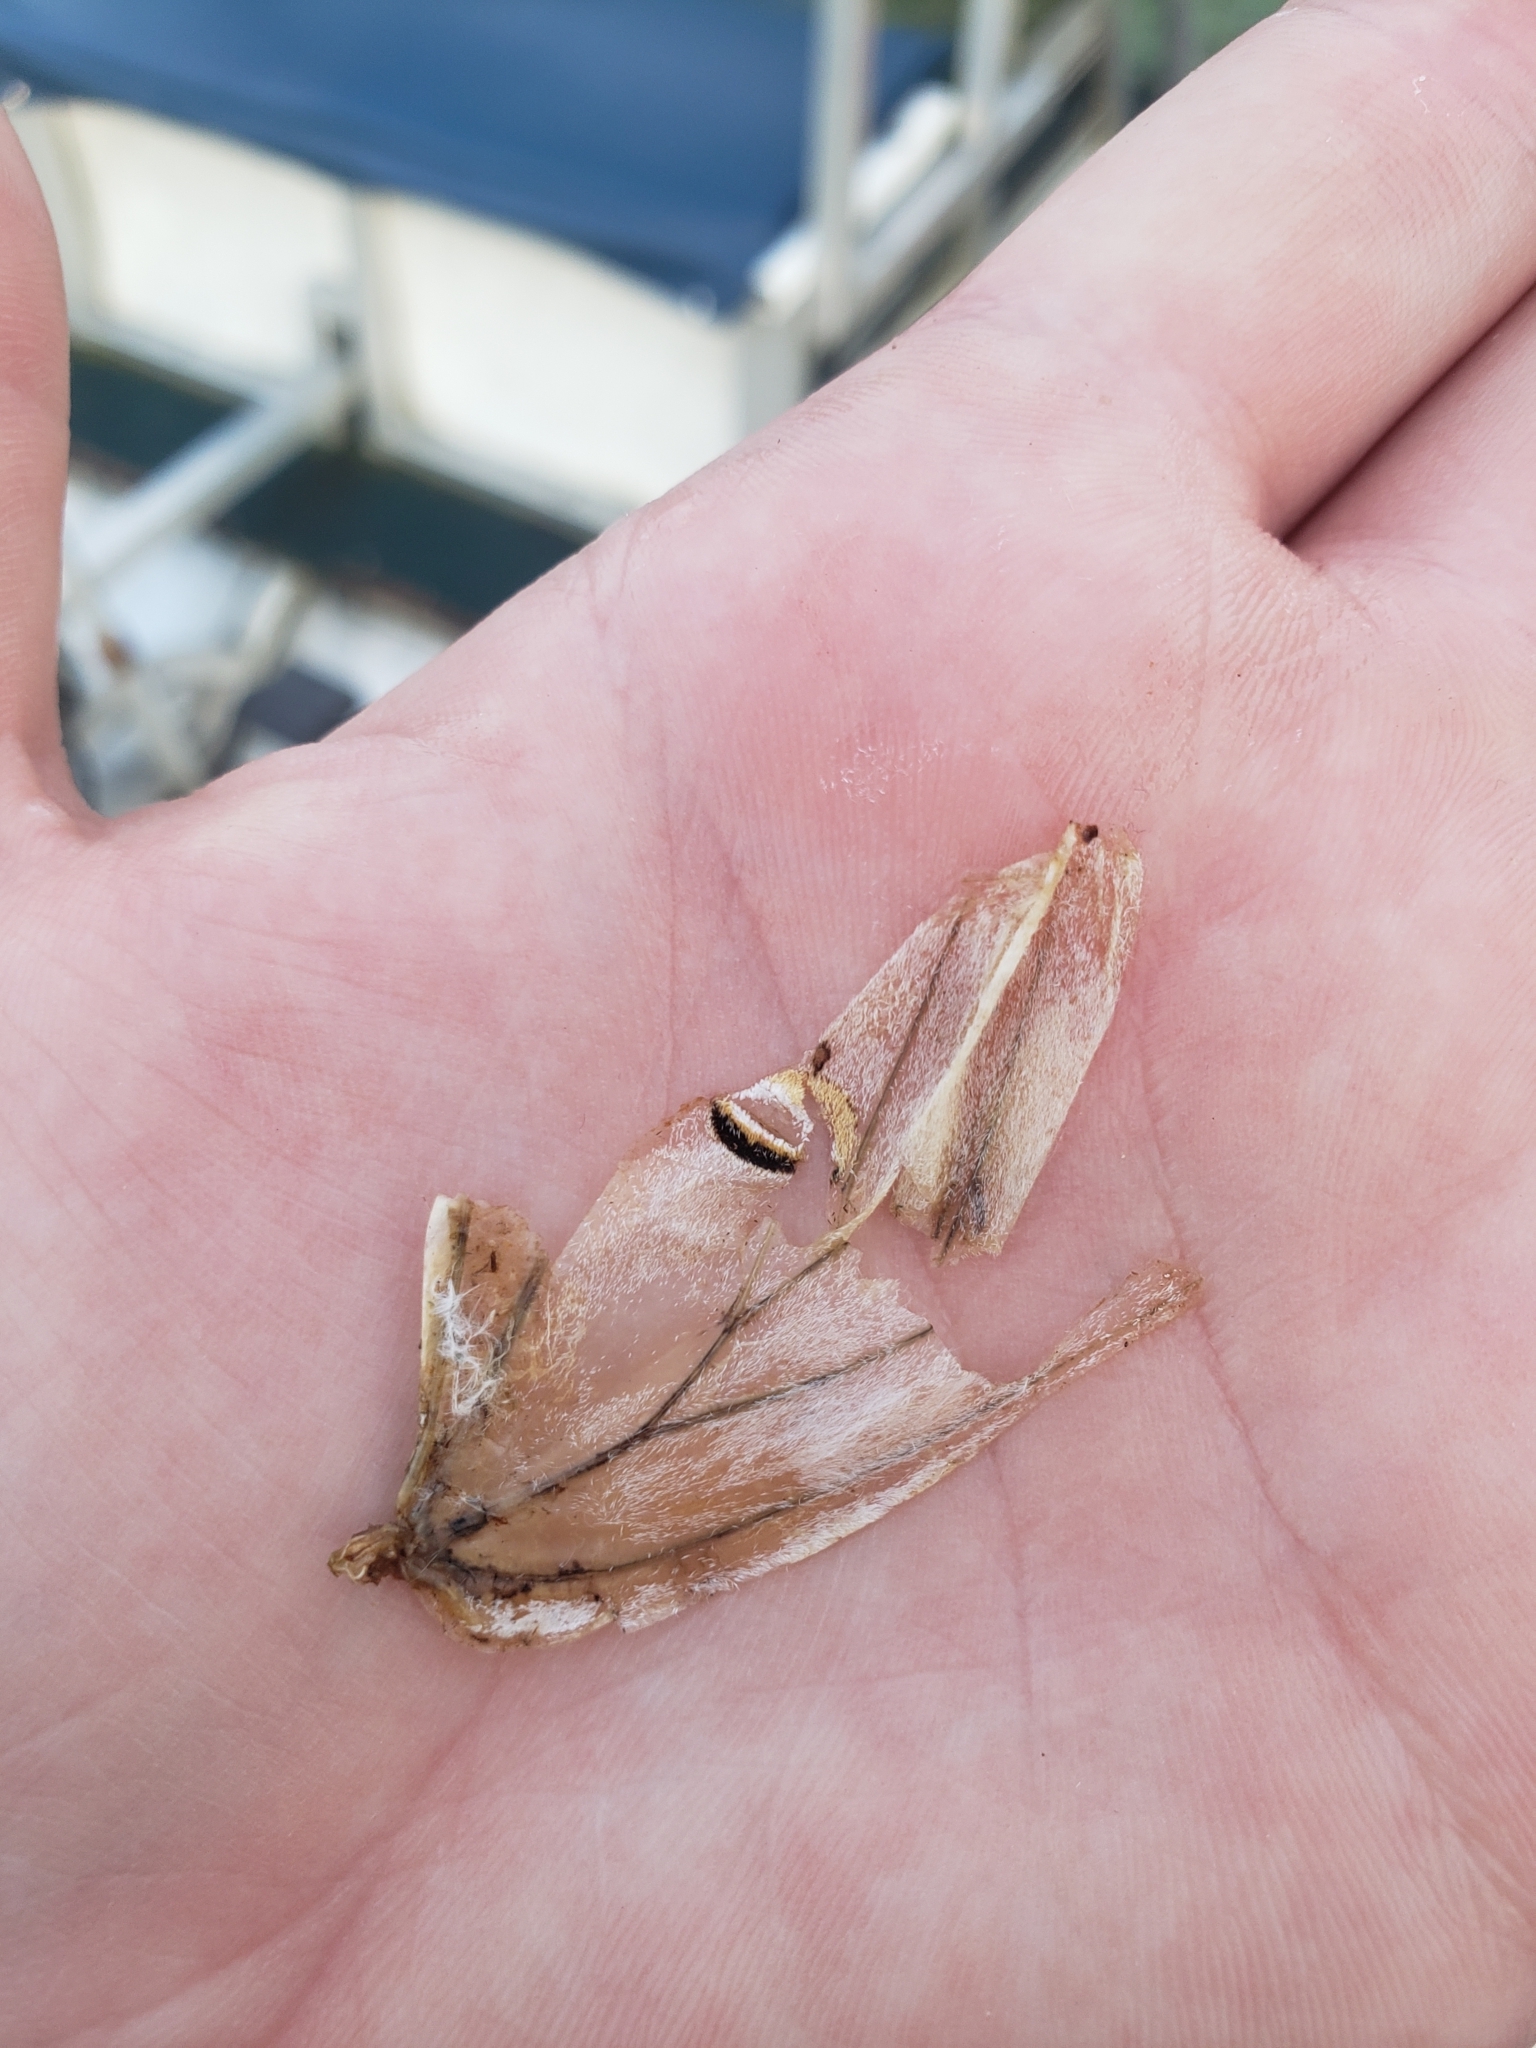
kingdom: Animalia
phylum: Arthropoda
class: Insecta
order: Lepidoptera
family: Saturniidae
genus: Actias
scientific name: Actias luna
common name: Luna moth
